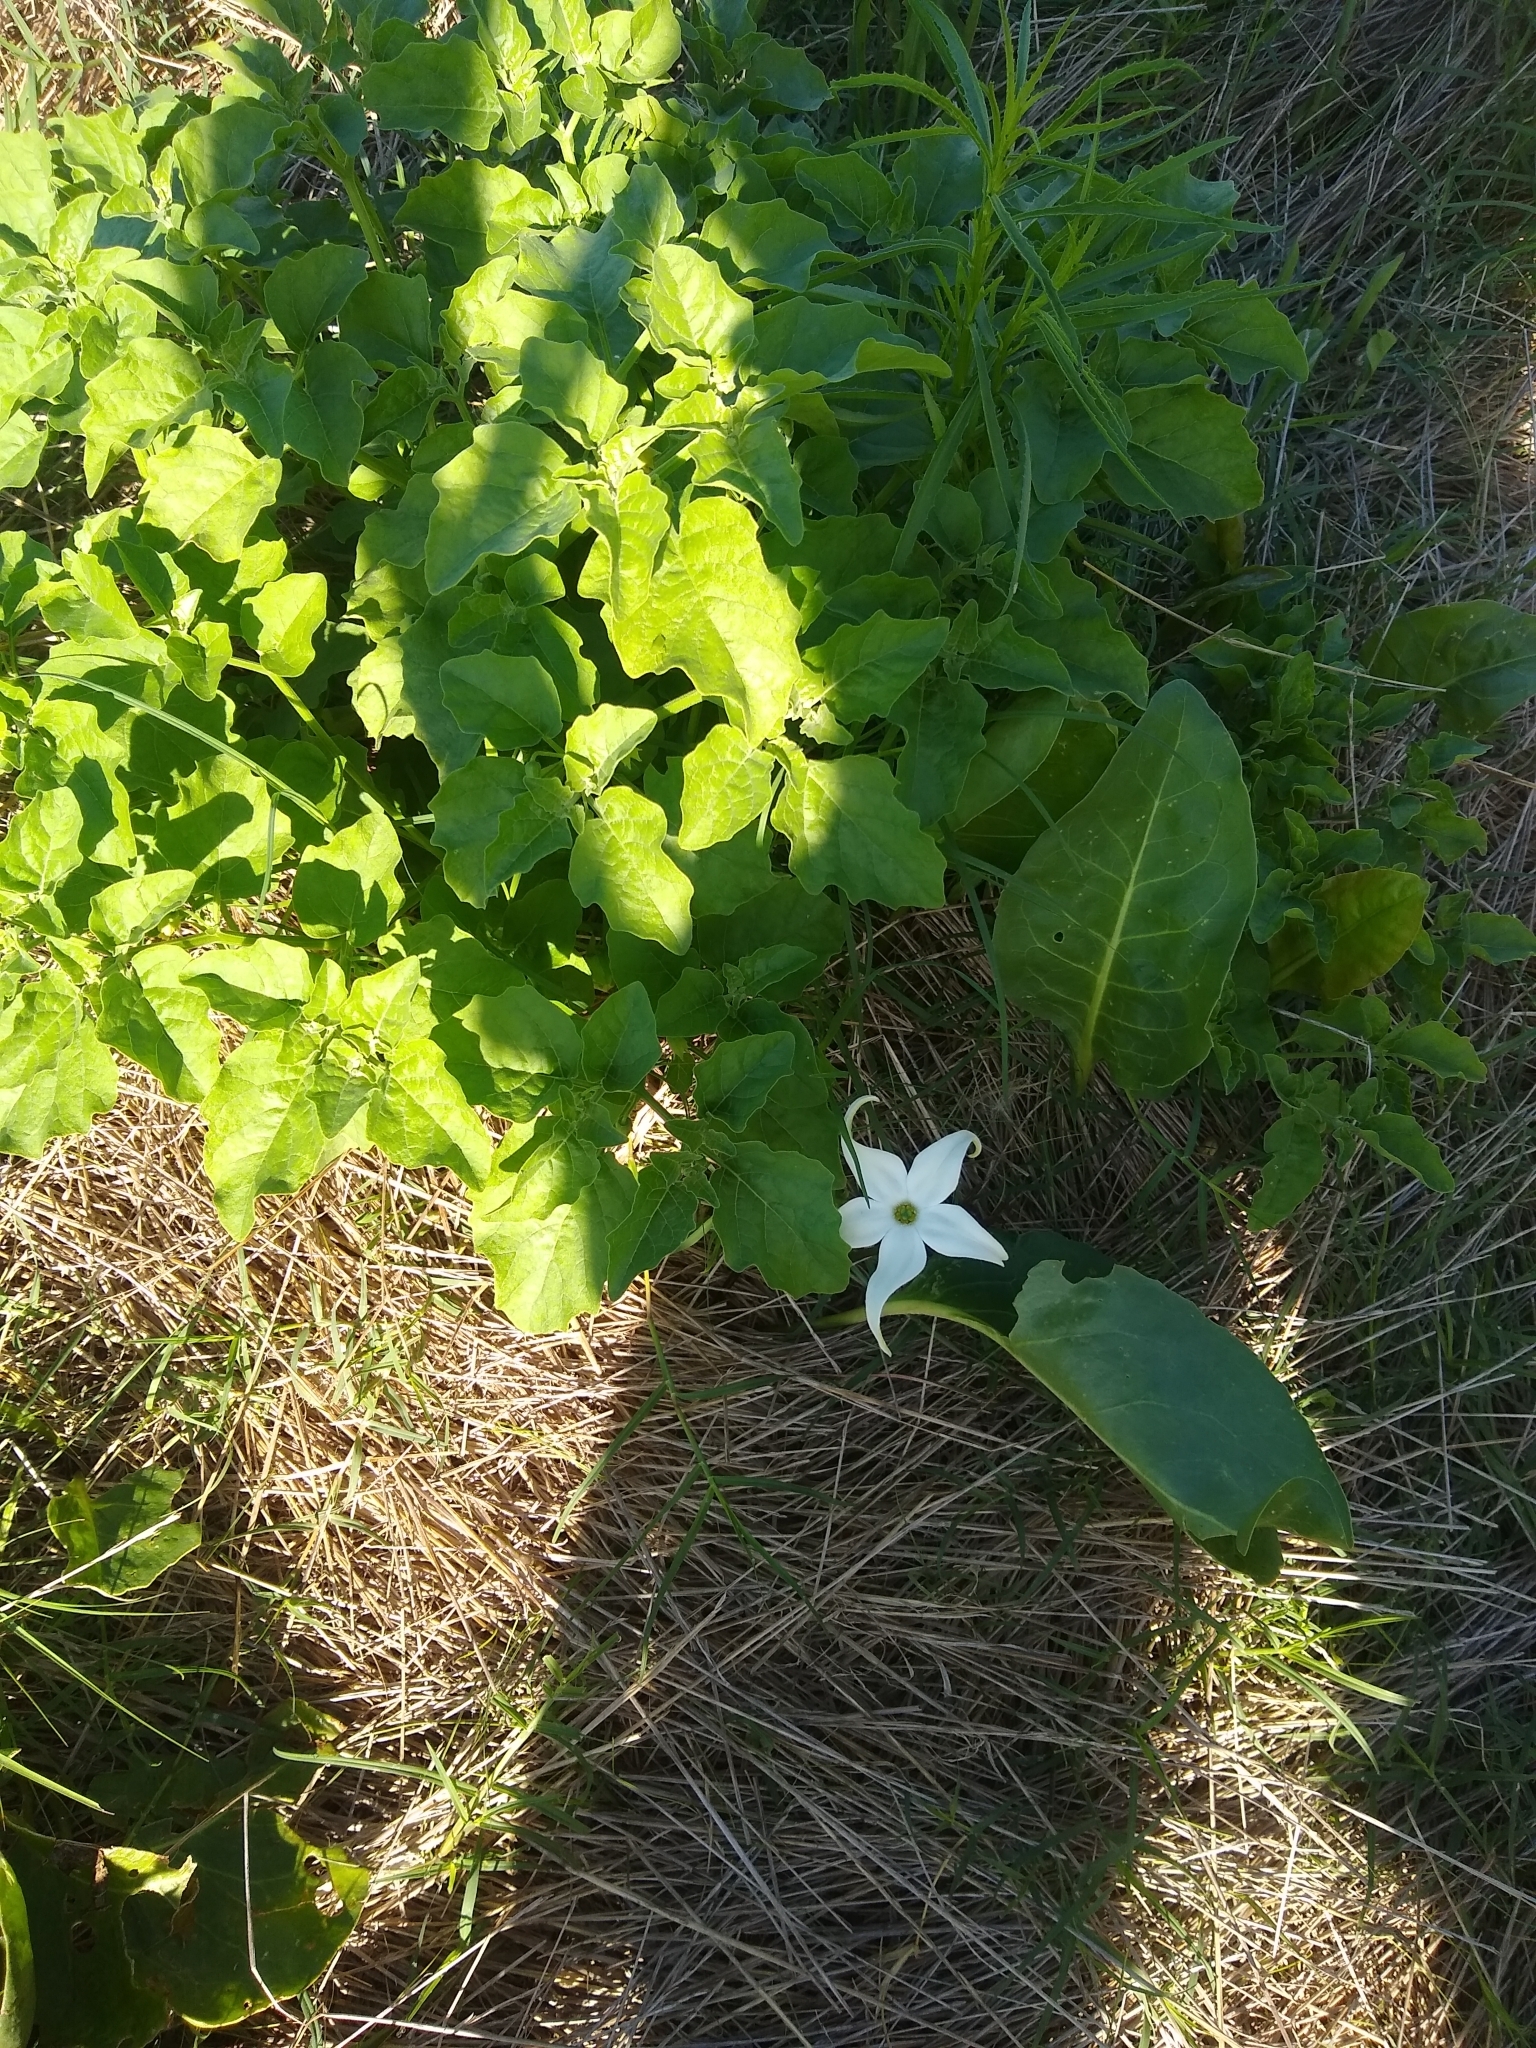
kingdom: Plantae
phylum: Tracheophyta
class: Magnoliopsida
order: Solanales
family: Solanaceae
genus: Jaborosa
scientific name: Jaborosa integrifolia
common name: Springblossom
